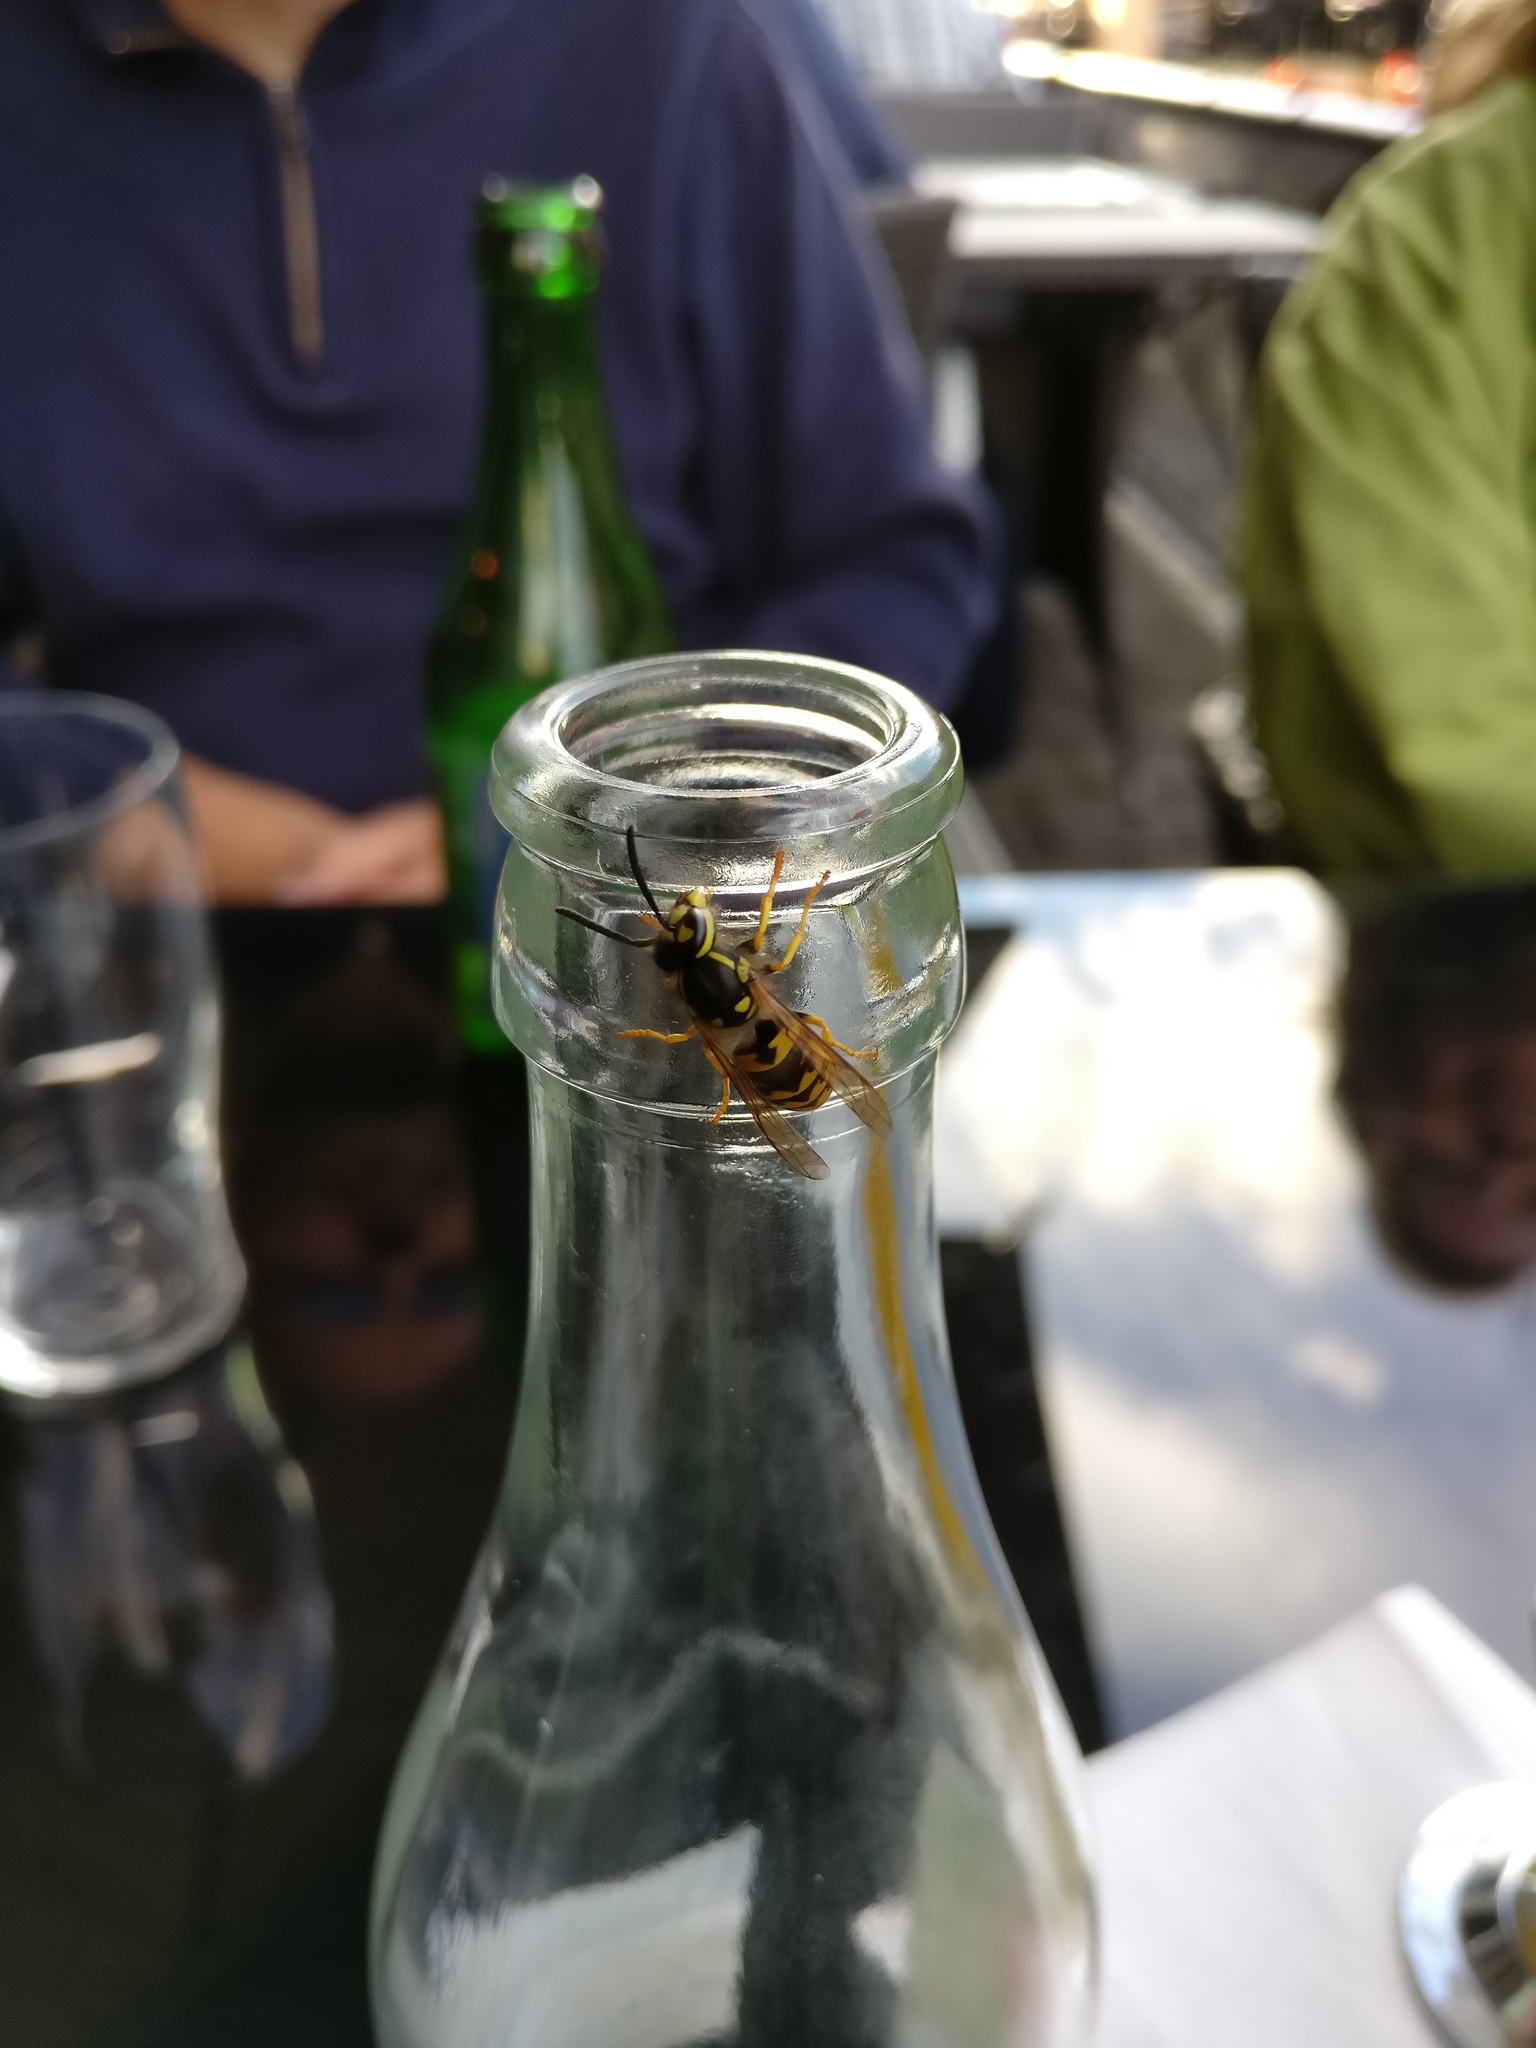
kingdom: Animalia
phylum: Arthropoda
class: Insecta
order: Hymenoptera
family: Vespidae
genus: Vespula
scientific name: Vespula germanica
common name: German wasp
